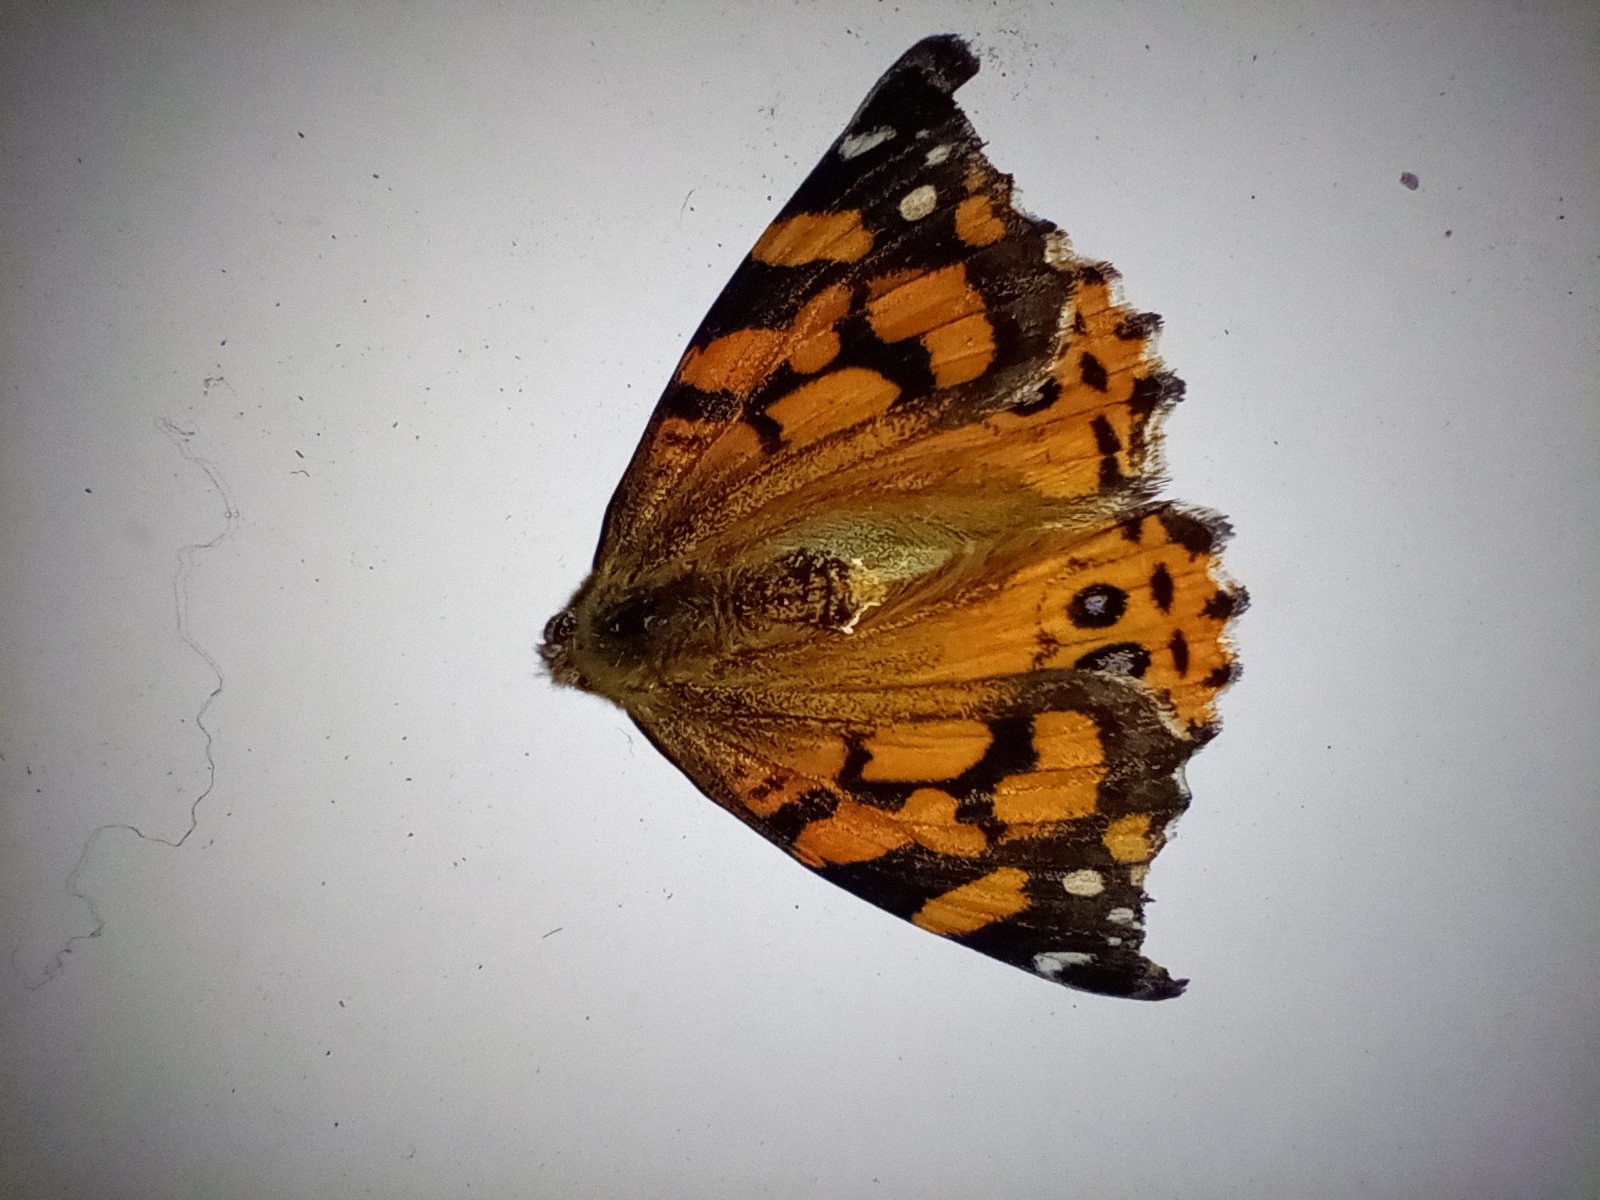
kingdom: Animalia
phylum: Arthropoda
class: Insecta
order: Lepidoptera
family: Nymphalidae
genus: Vanessa
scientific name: Vanessa annabella
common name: West coast lady
